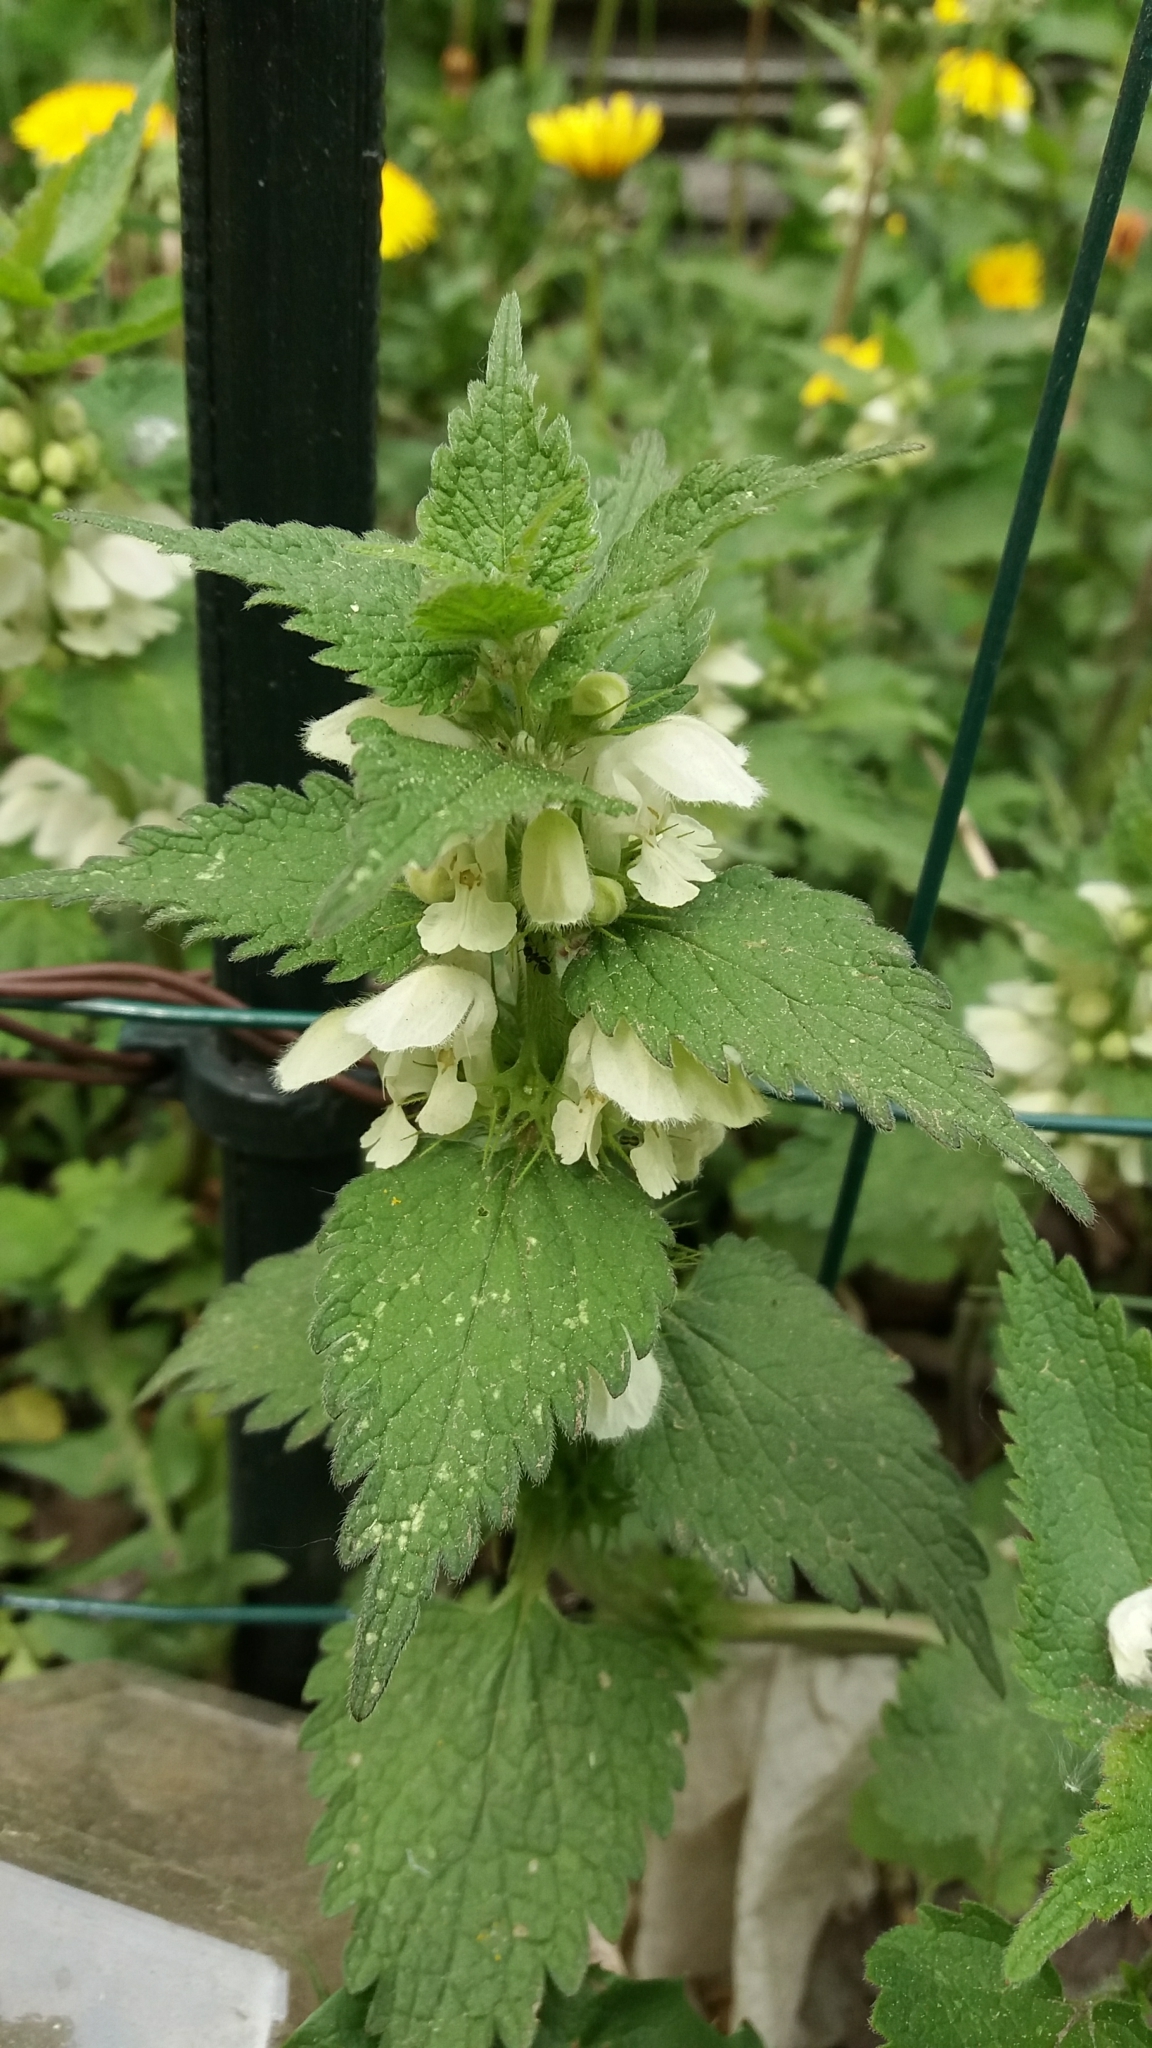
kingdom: Plantae
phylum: Tracheophyta
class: Magnoliopsida
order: Lamiales
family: Lamiaceae
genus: Lamium
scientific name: Lamium album
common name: White dead-nettle
